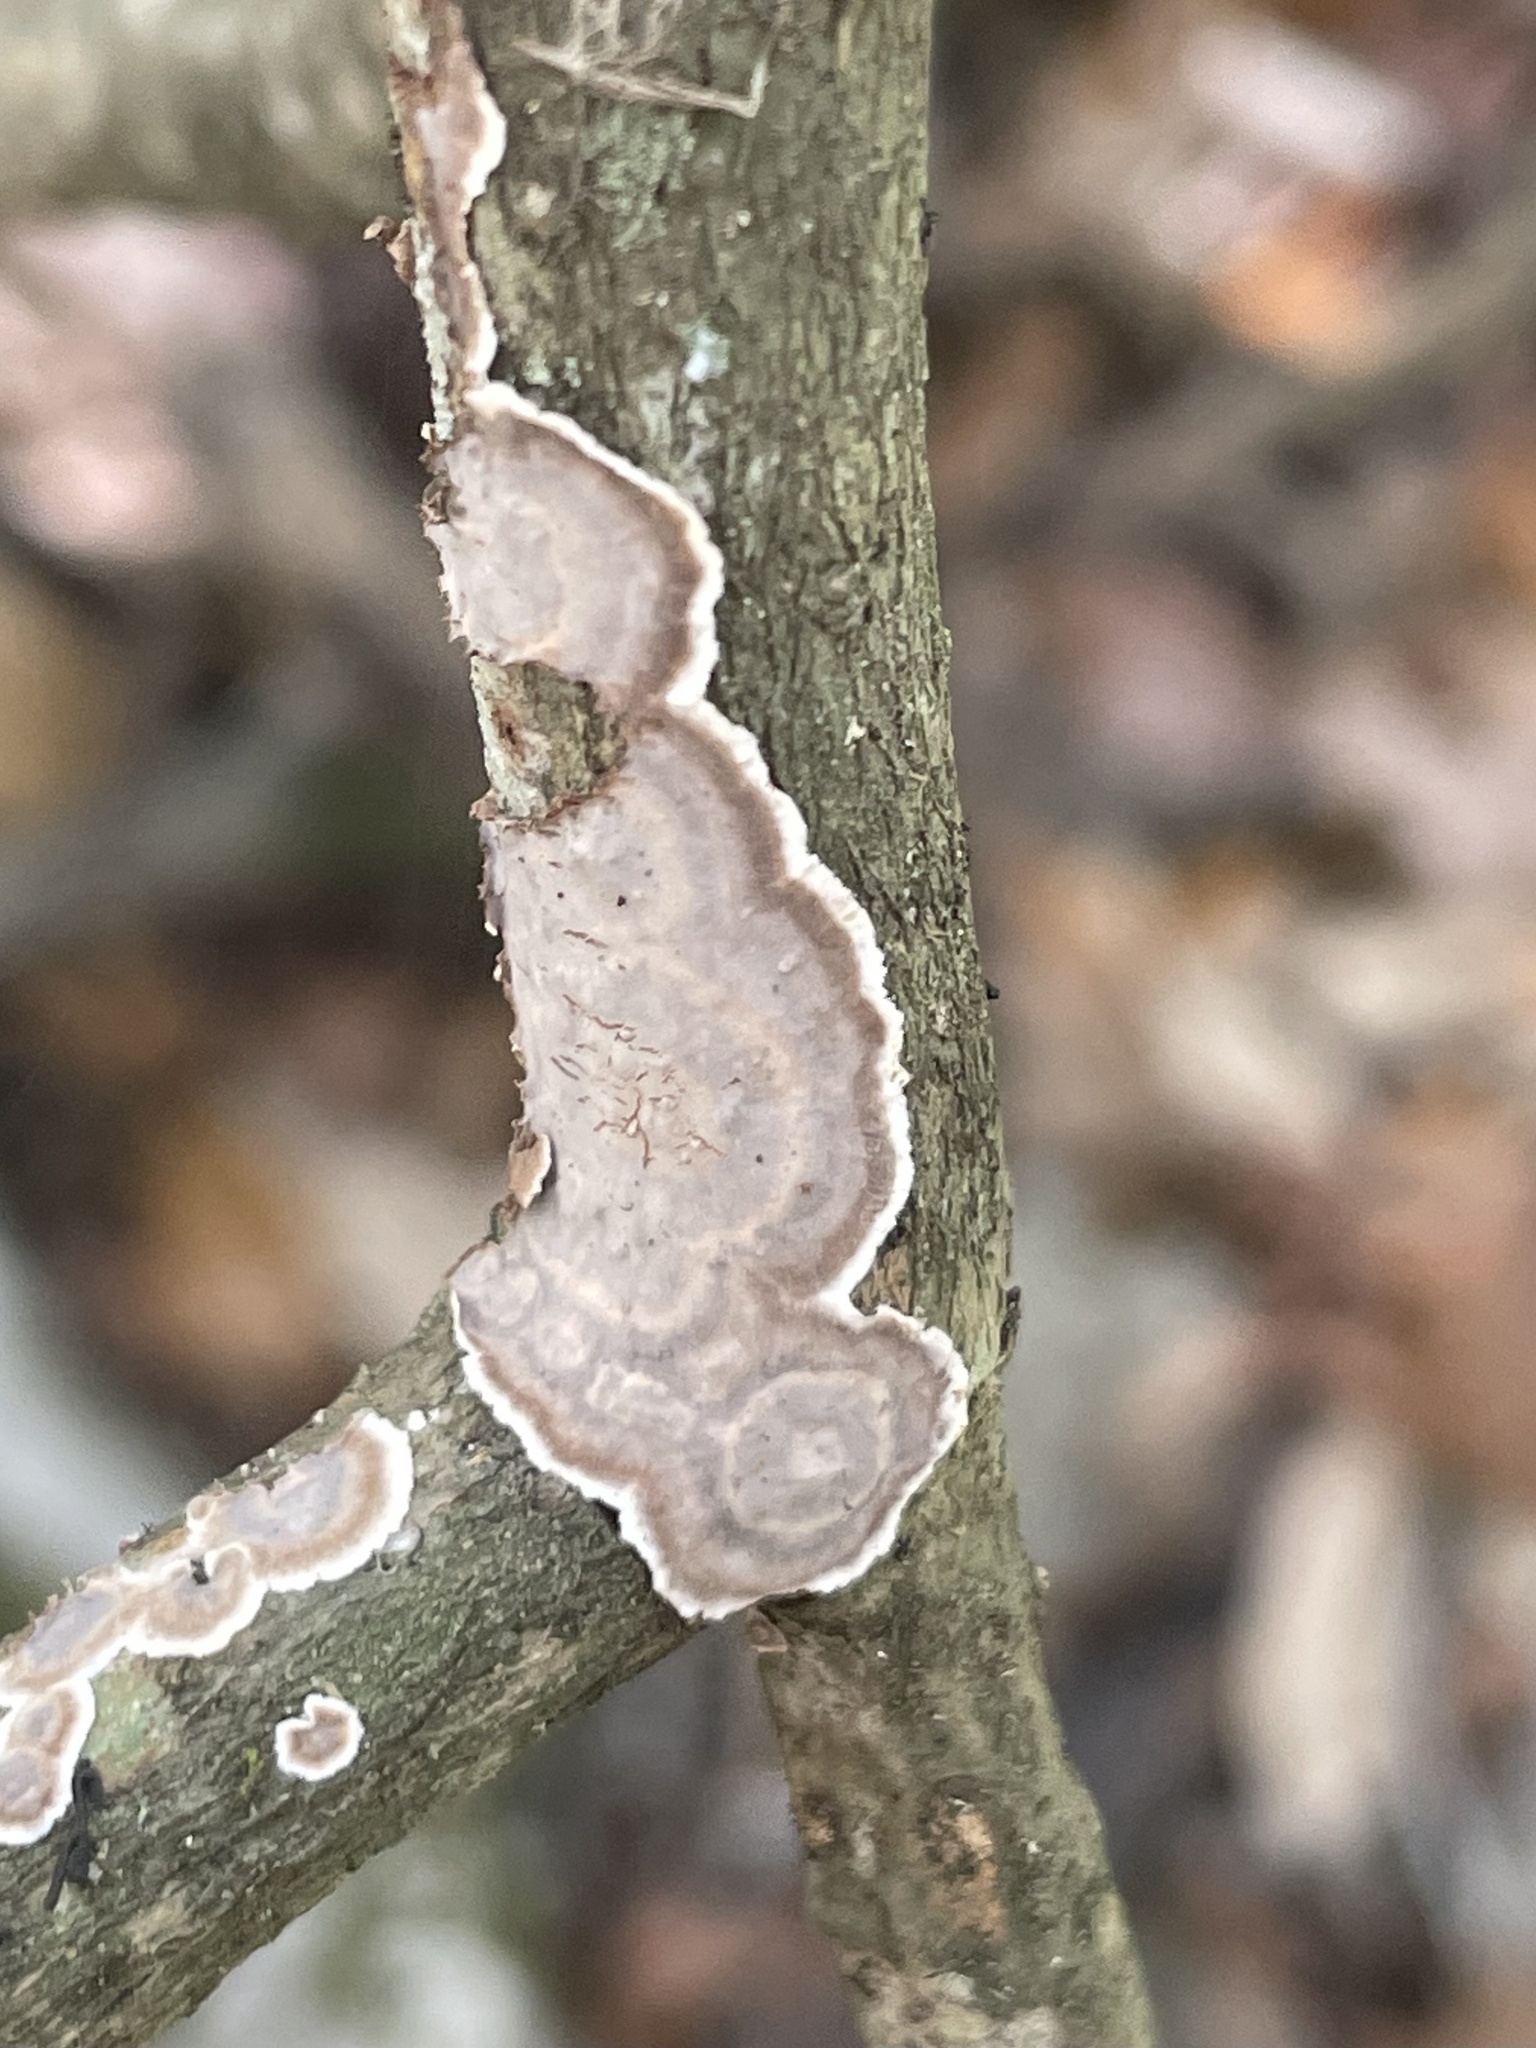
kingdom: Fungi
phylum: Basidiomycota
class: Agaricomycetes
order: Russulales
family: Peniophoraceae
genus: Peniophora
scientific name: Peniophora albobadia
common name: Giraffe spots
